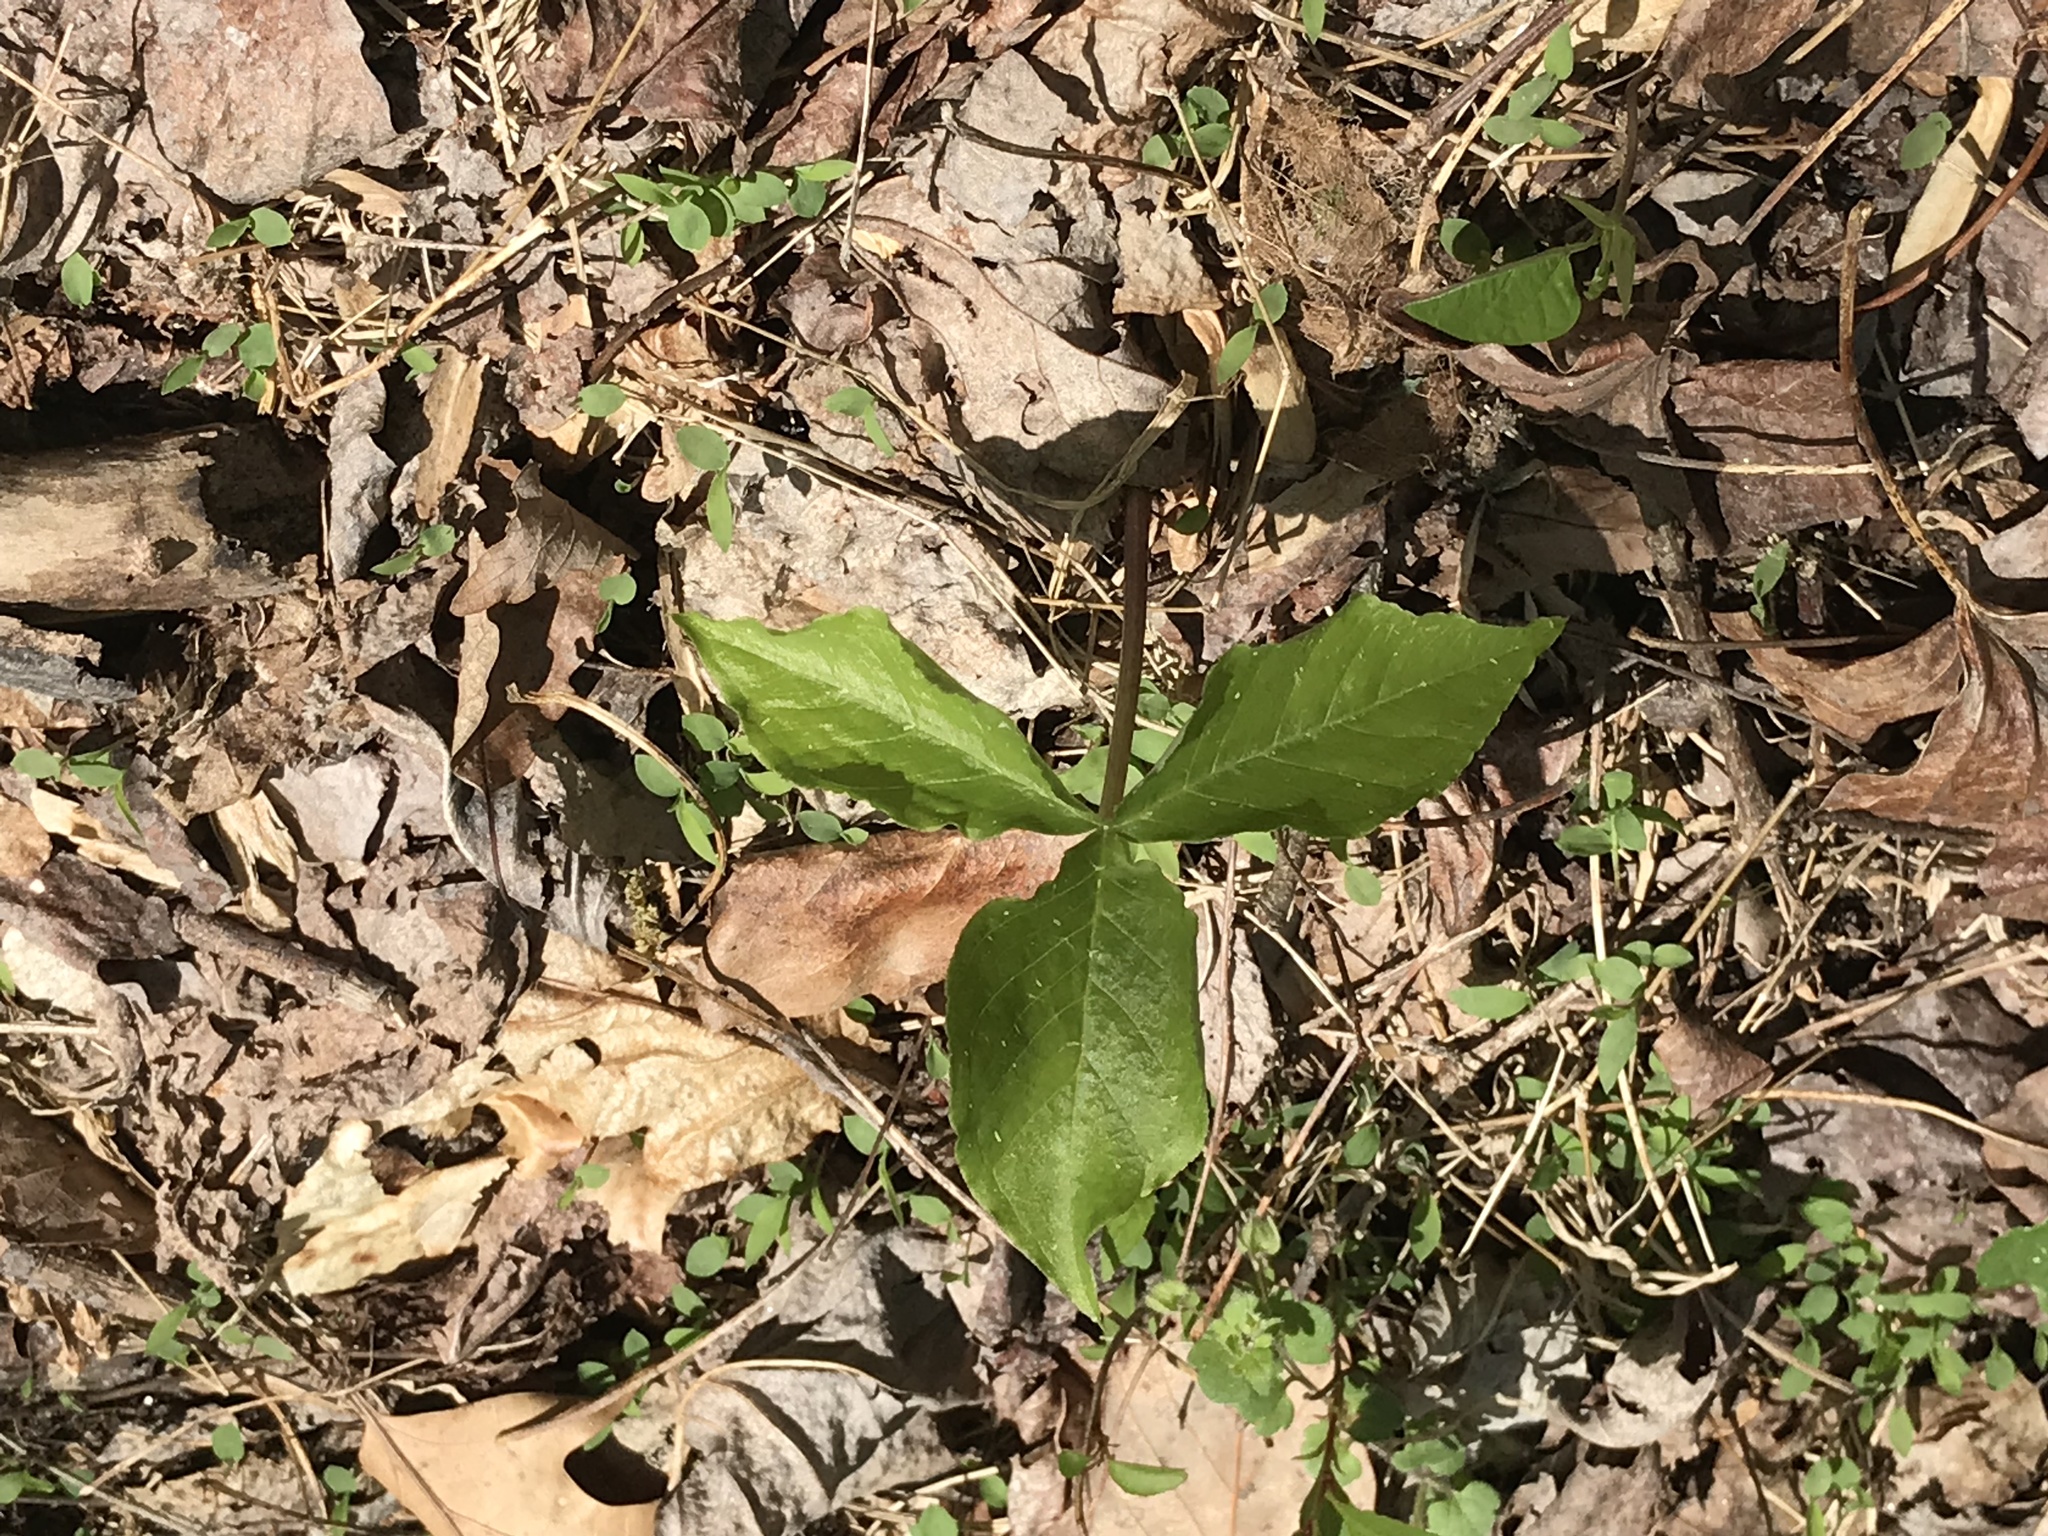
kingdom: Plantae
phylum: Tracheophyta
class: Liliopsida
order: Alismatales
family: Araceae
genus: Arisaema
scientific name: Arisaema triphyllum
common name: Jack-in-the-pulpit
